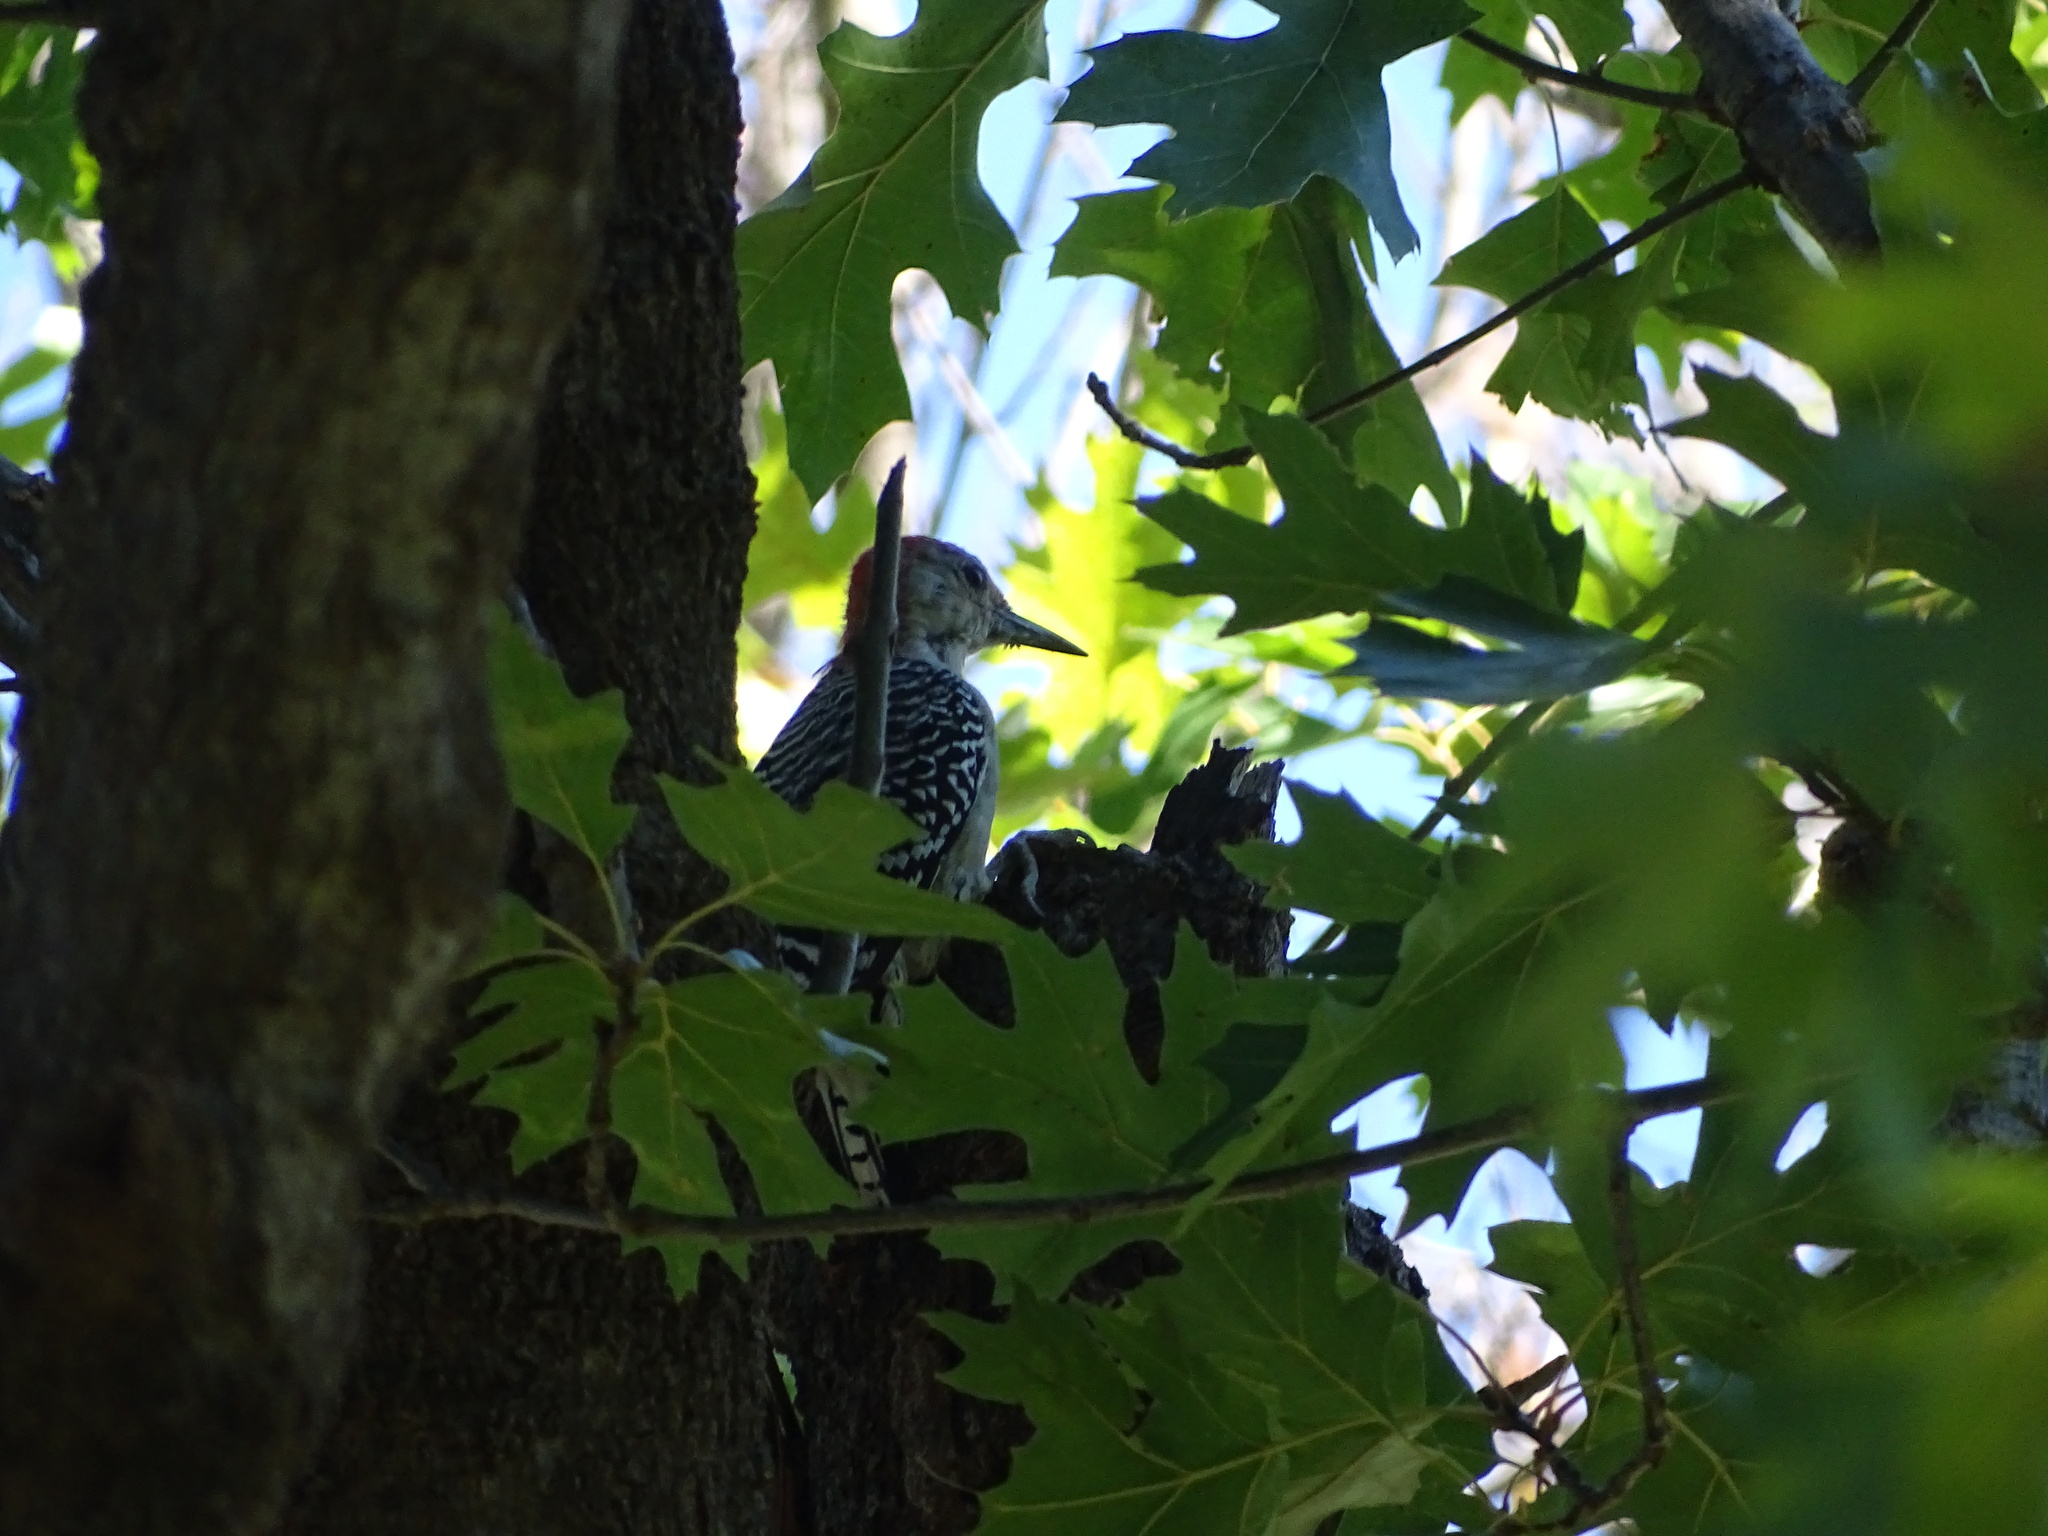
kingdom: Animalia
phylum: Chordata
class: Aves
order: Piciformes
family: Picidae
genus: Melanerpes
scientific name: Melanerpes carolinus
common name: Red-bellied woodpecker
